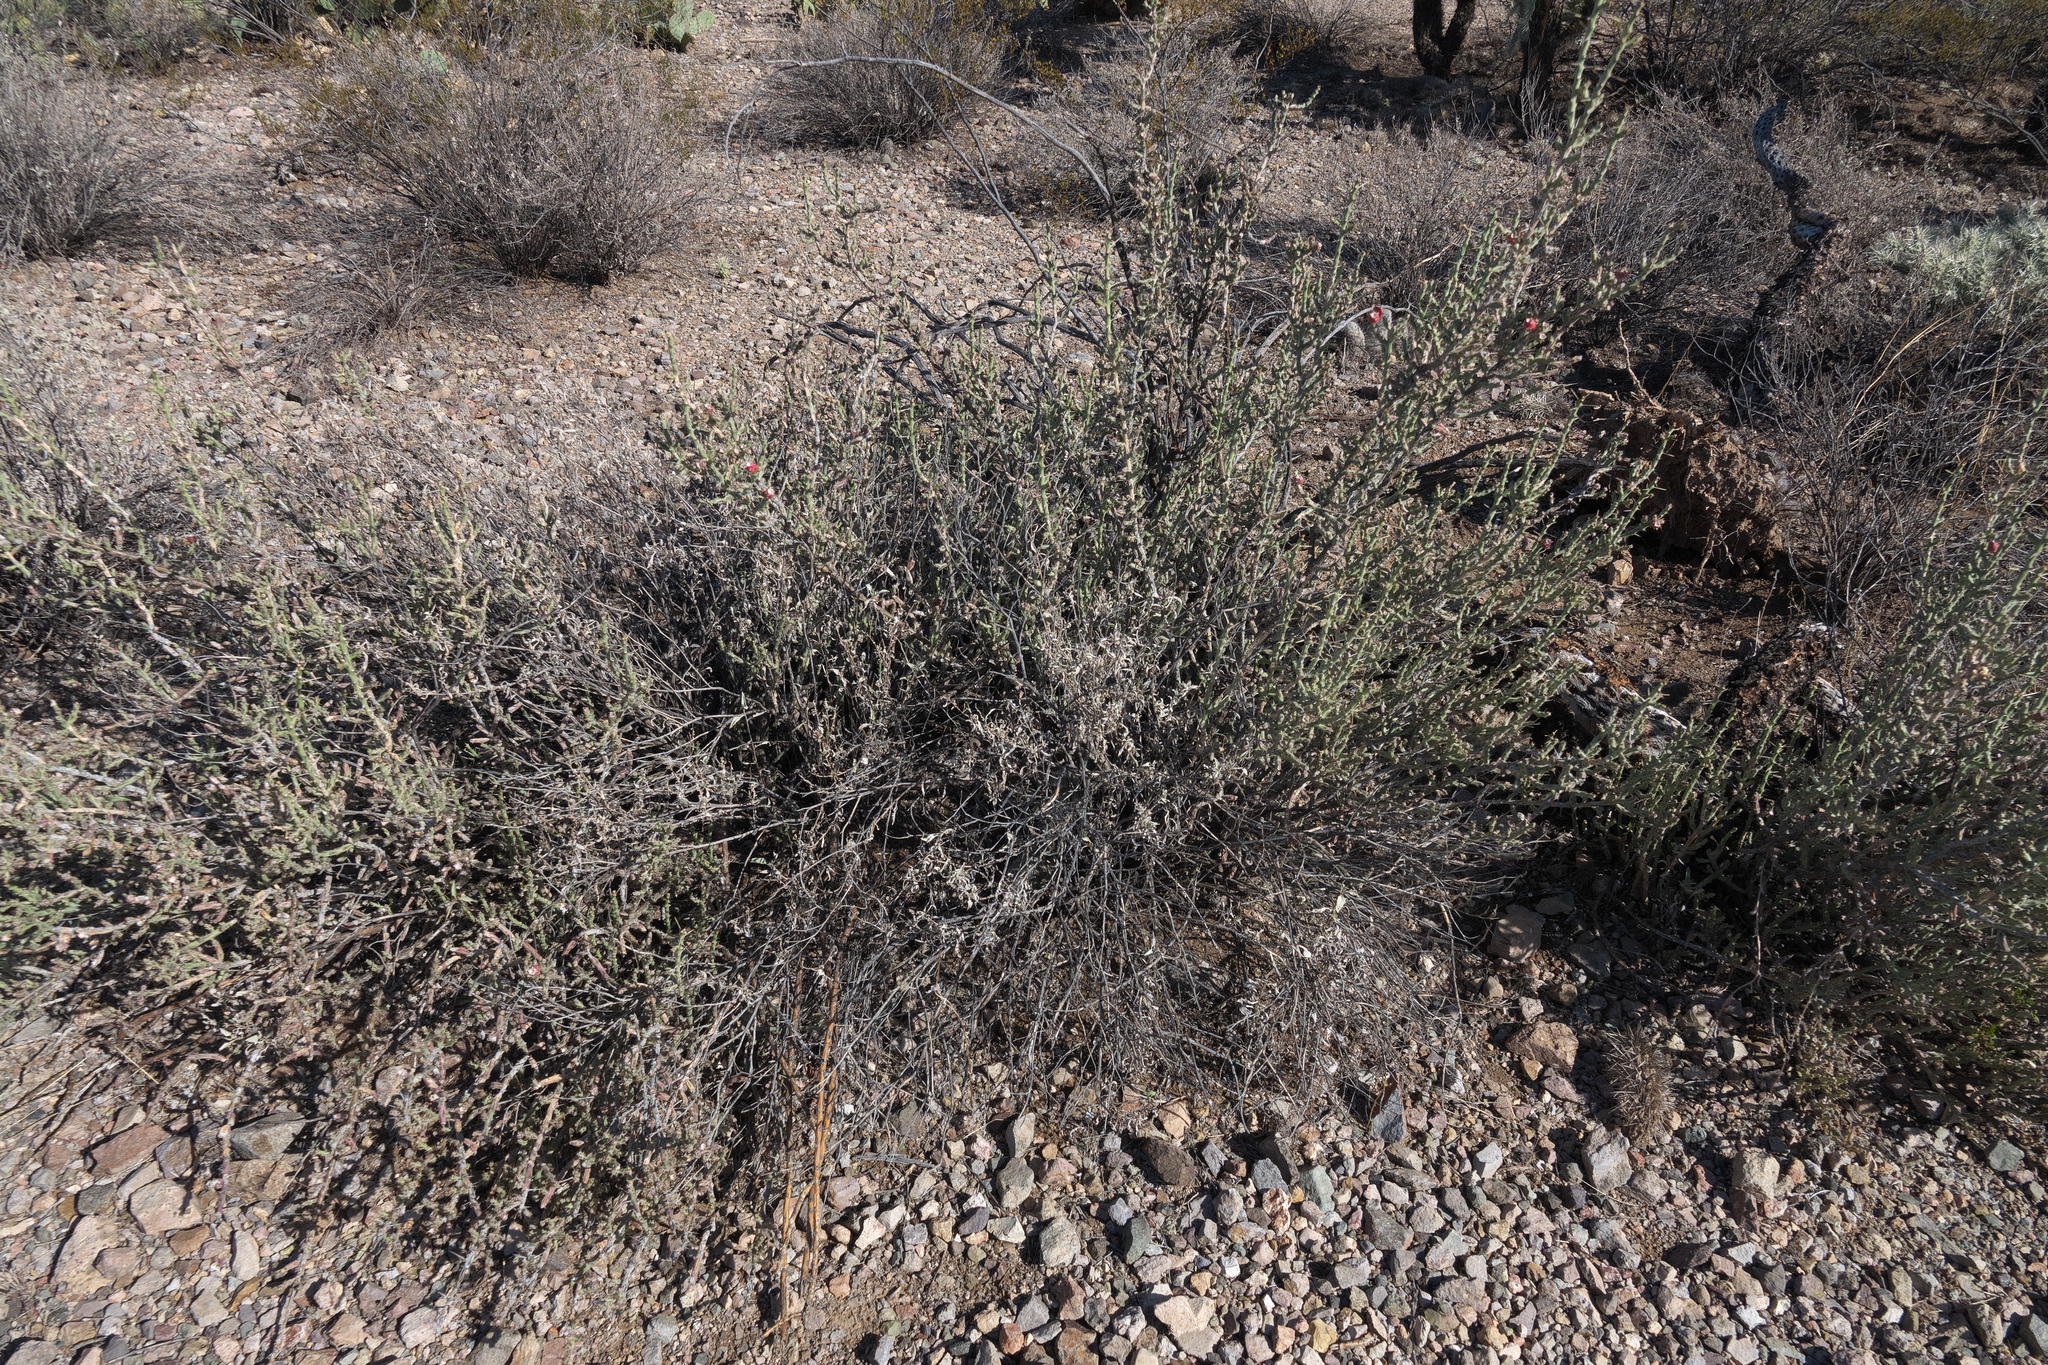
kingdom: Plantae
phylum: Tracheophyta
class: Magnoliopsida
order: Caryophyllales
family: Cactaceae
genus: Cylindropuntia
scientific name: Cylindropuntia leptocaulis
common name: Christmas cactus
